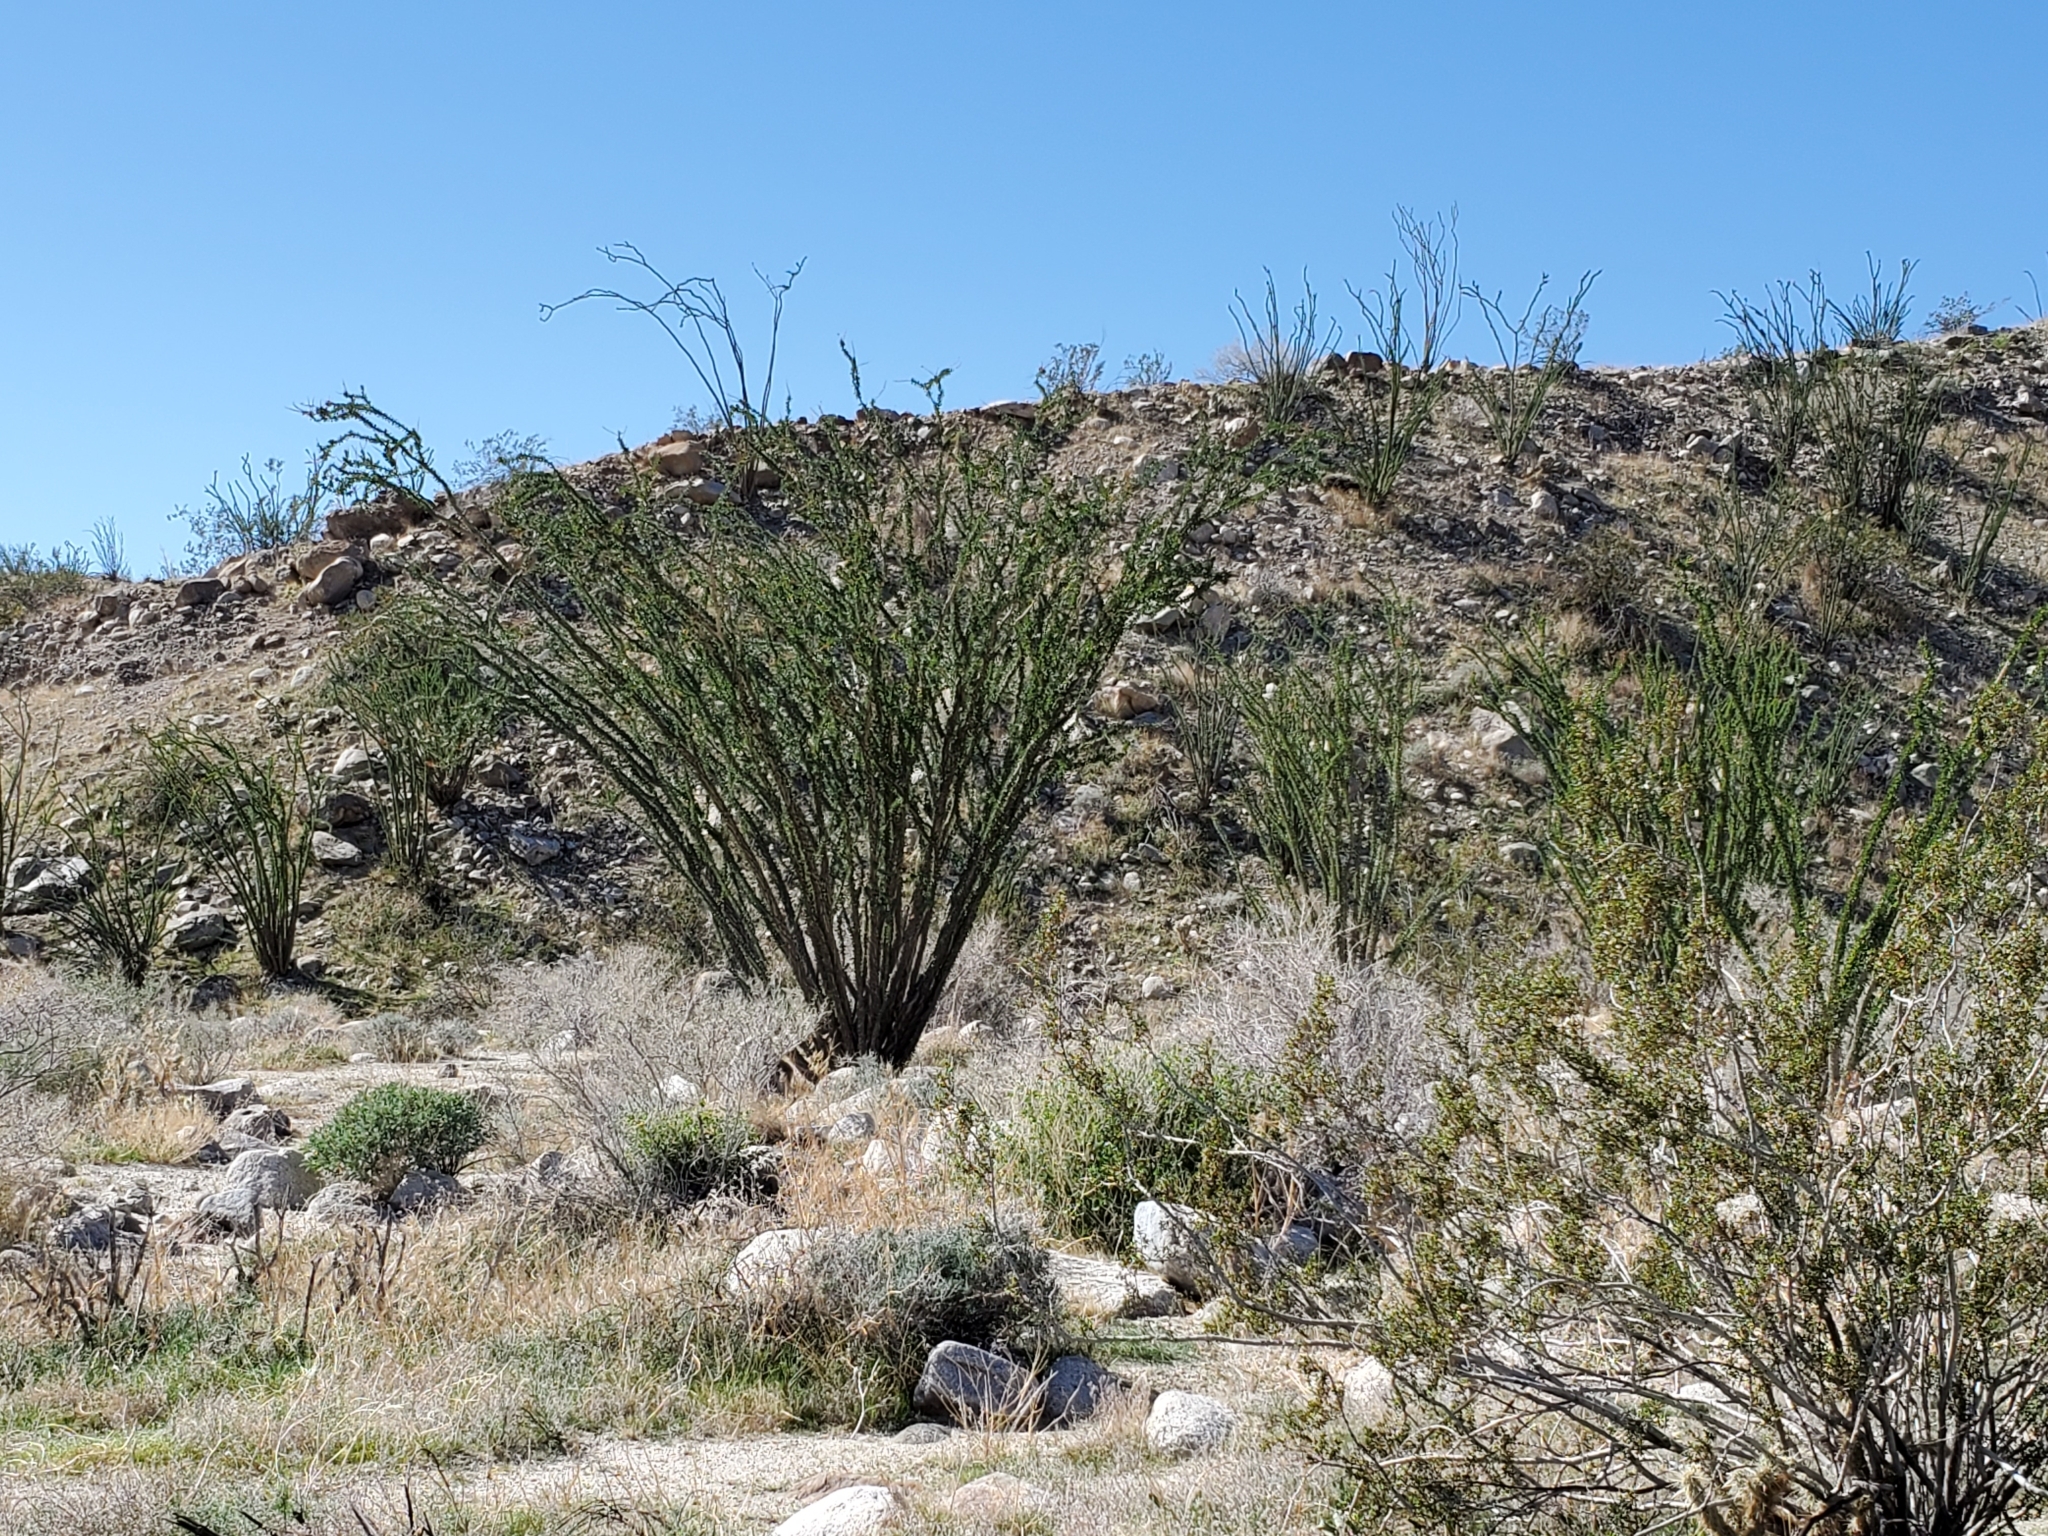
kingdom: Plantae
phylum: Tracheophyta
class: Magnoliopsida
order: Ericales
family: Fouquieriaceae
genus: Fouquieria
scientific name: Fouquieria splendens
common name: Vine-cactus
